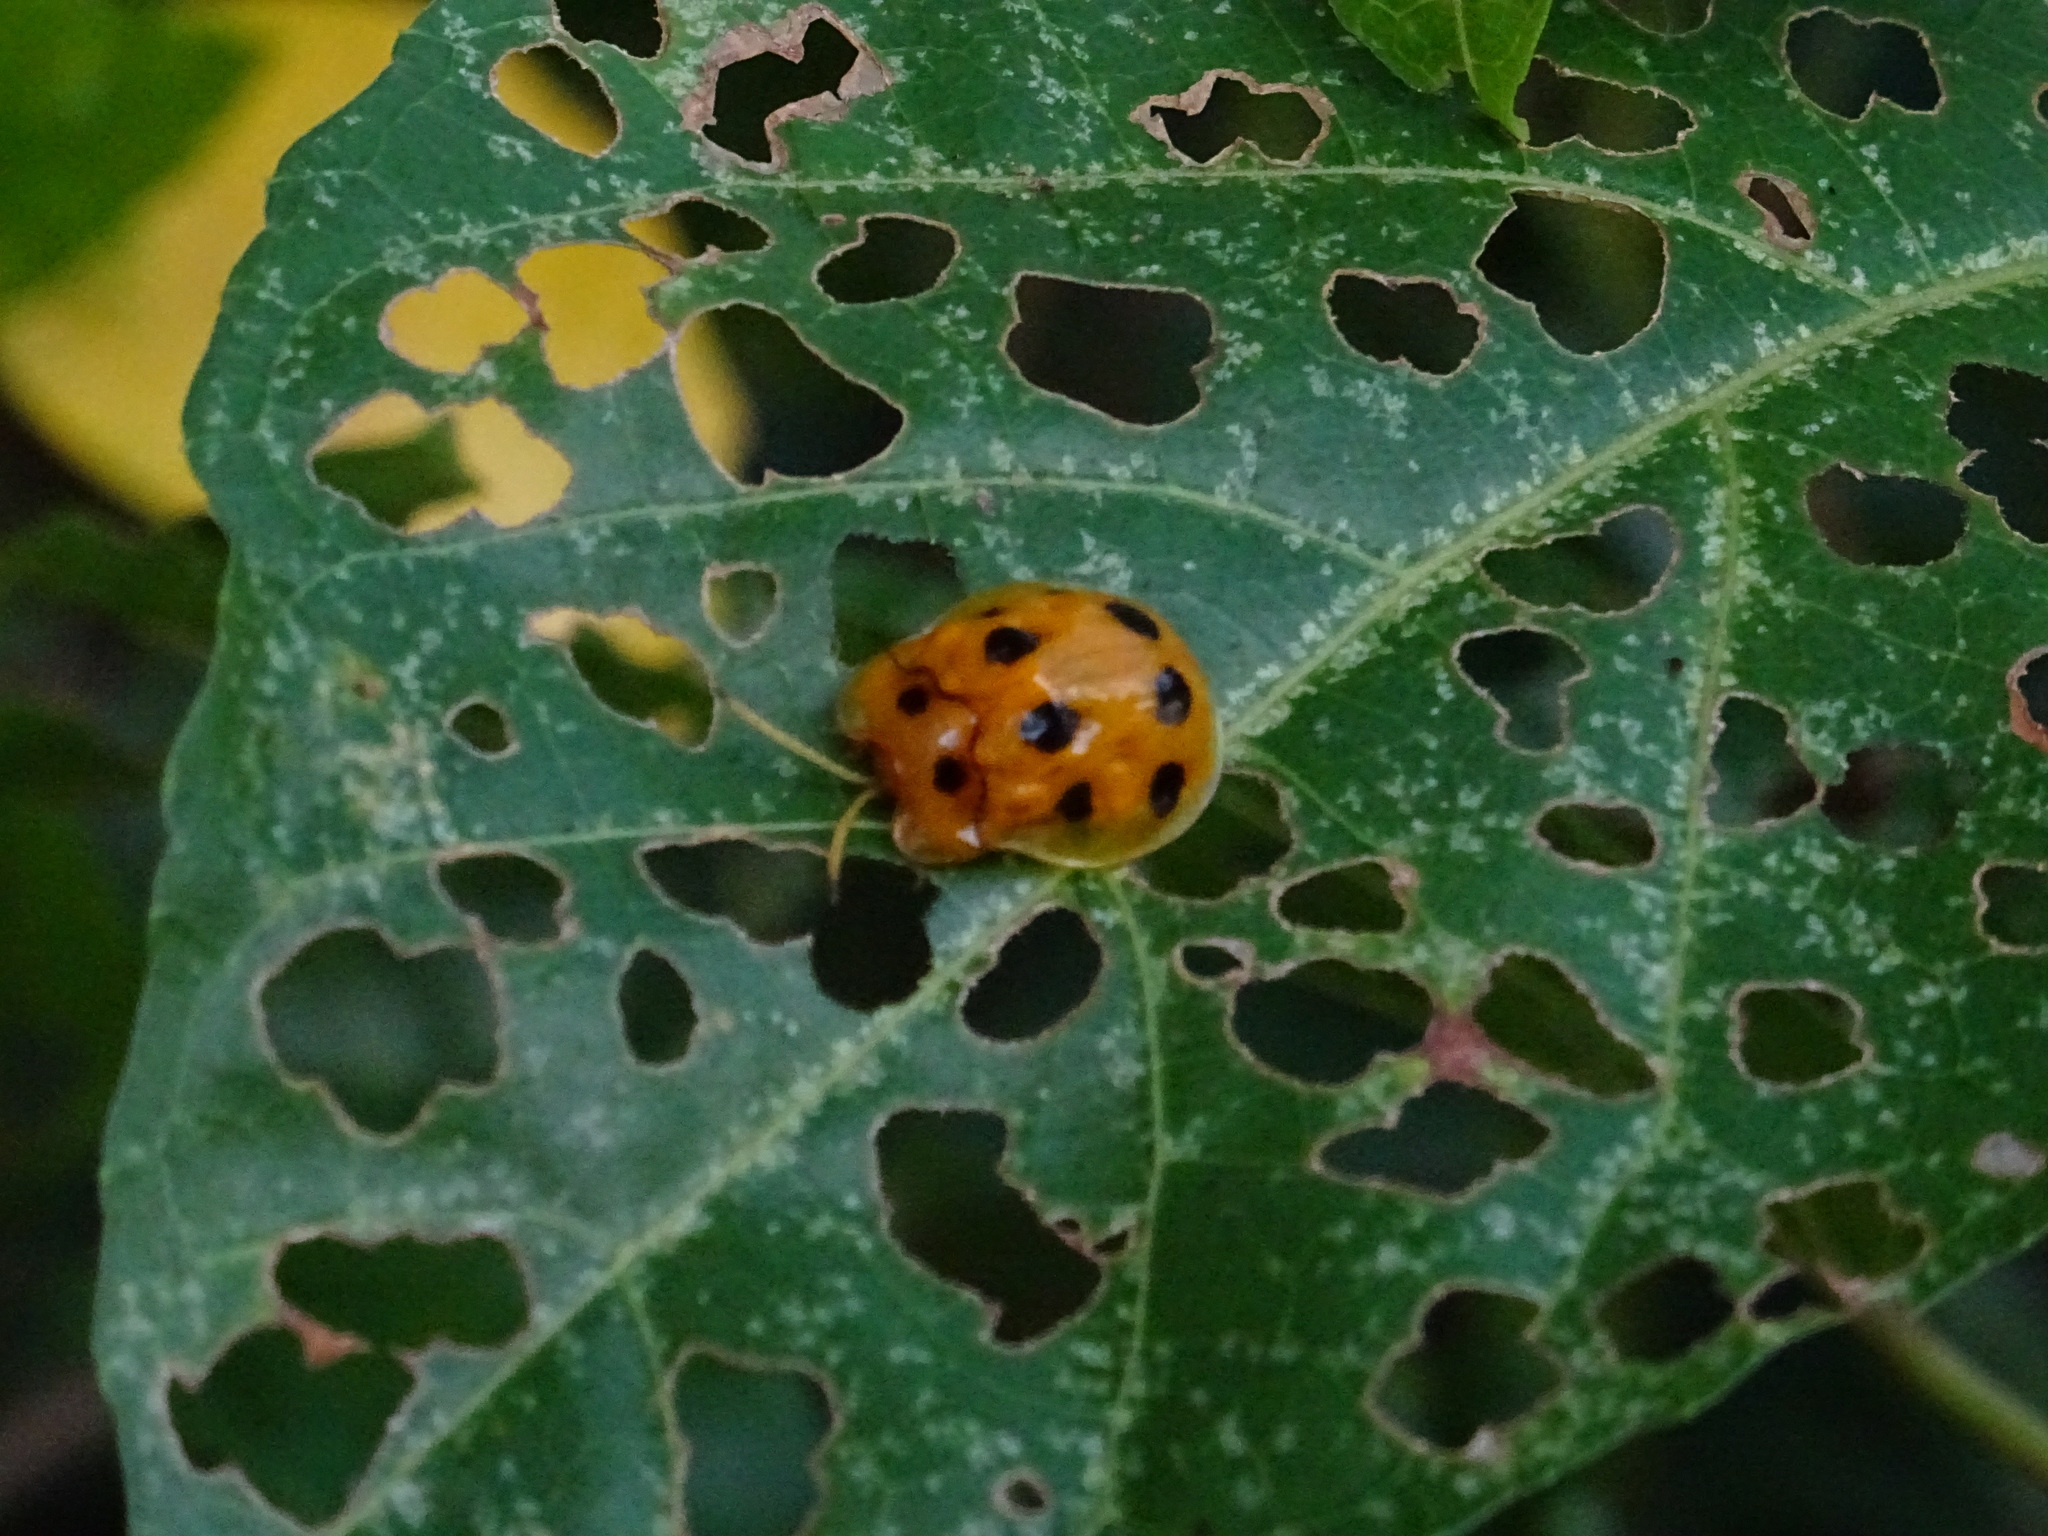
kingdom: Animalia
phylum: Arthropoda
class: Insecta
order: Coleoptera
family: Chrysomelidae
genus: Basiprionota
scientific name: Basiprionota decempustulata
